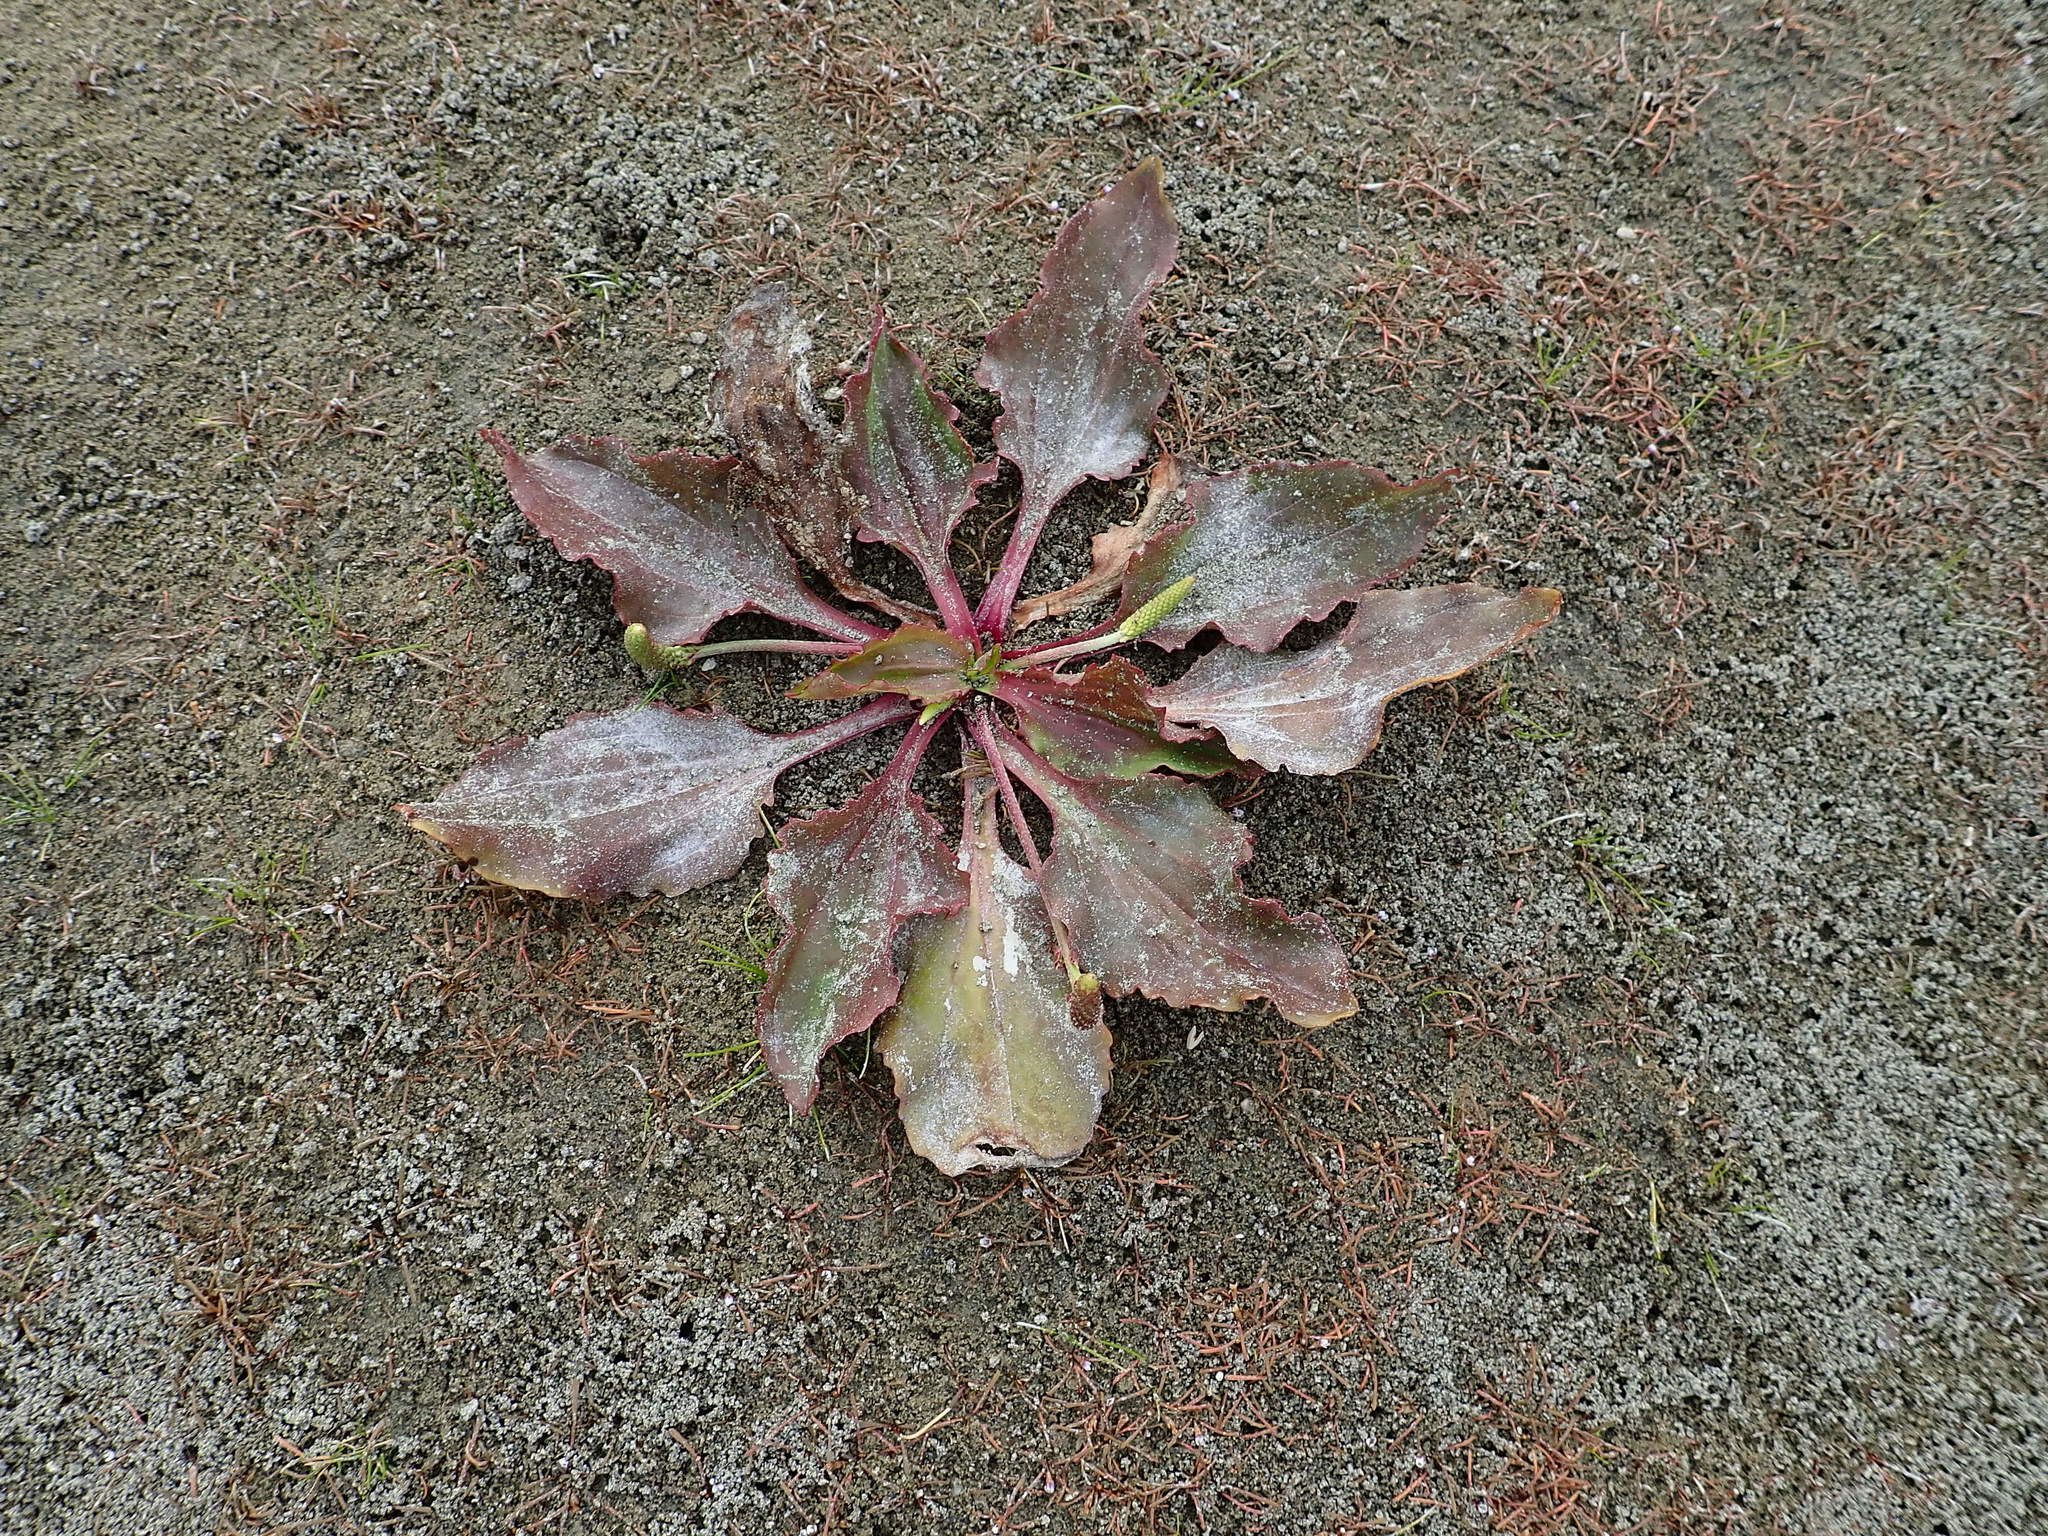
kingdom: Plantae
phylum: Tracheophyta
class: Magnoliopsida
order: Lamiales
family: Plantaginaceae
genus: Plantago
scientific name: Plantago major
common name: Common plantain
